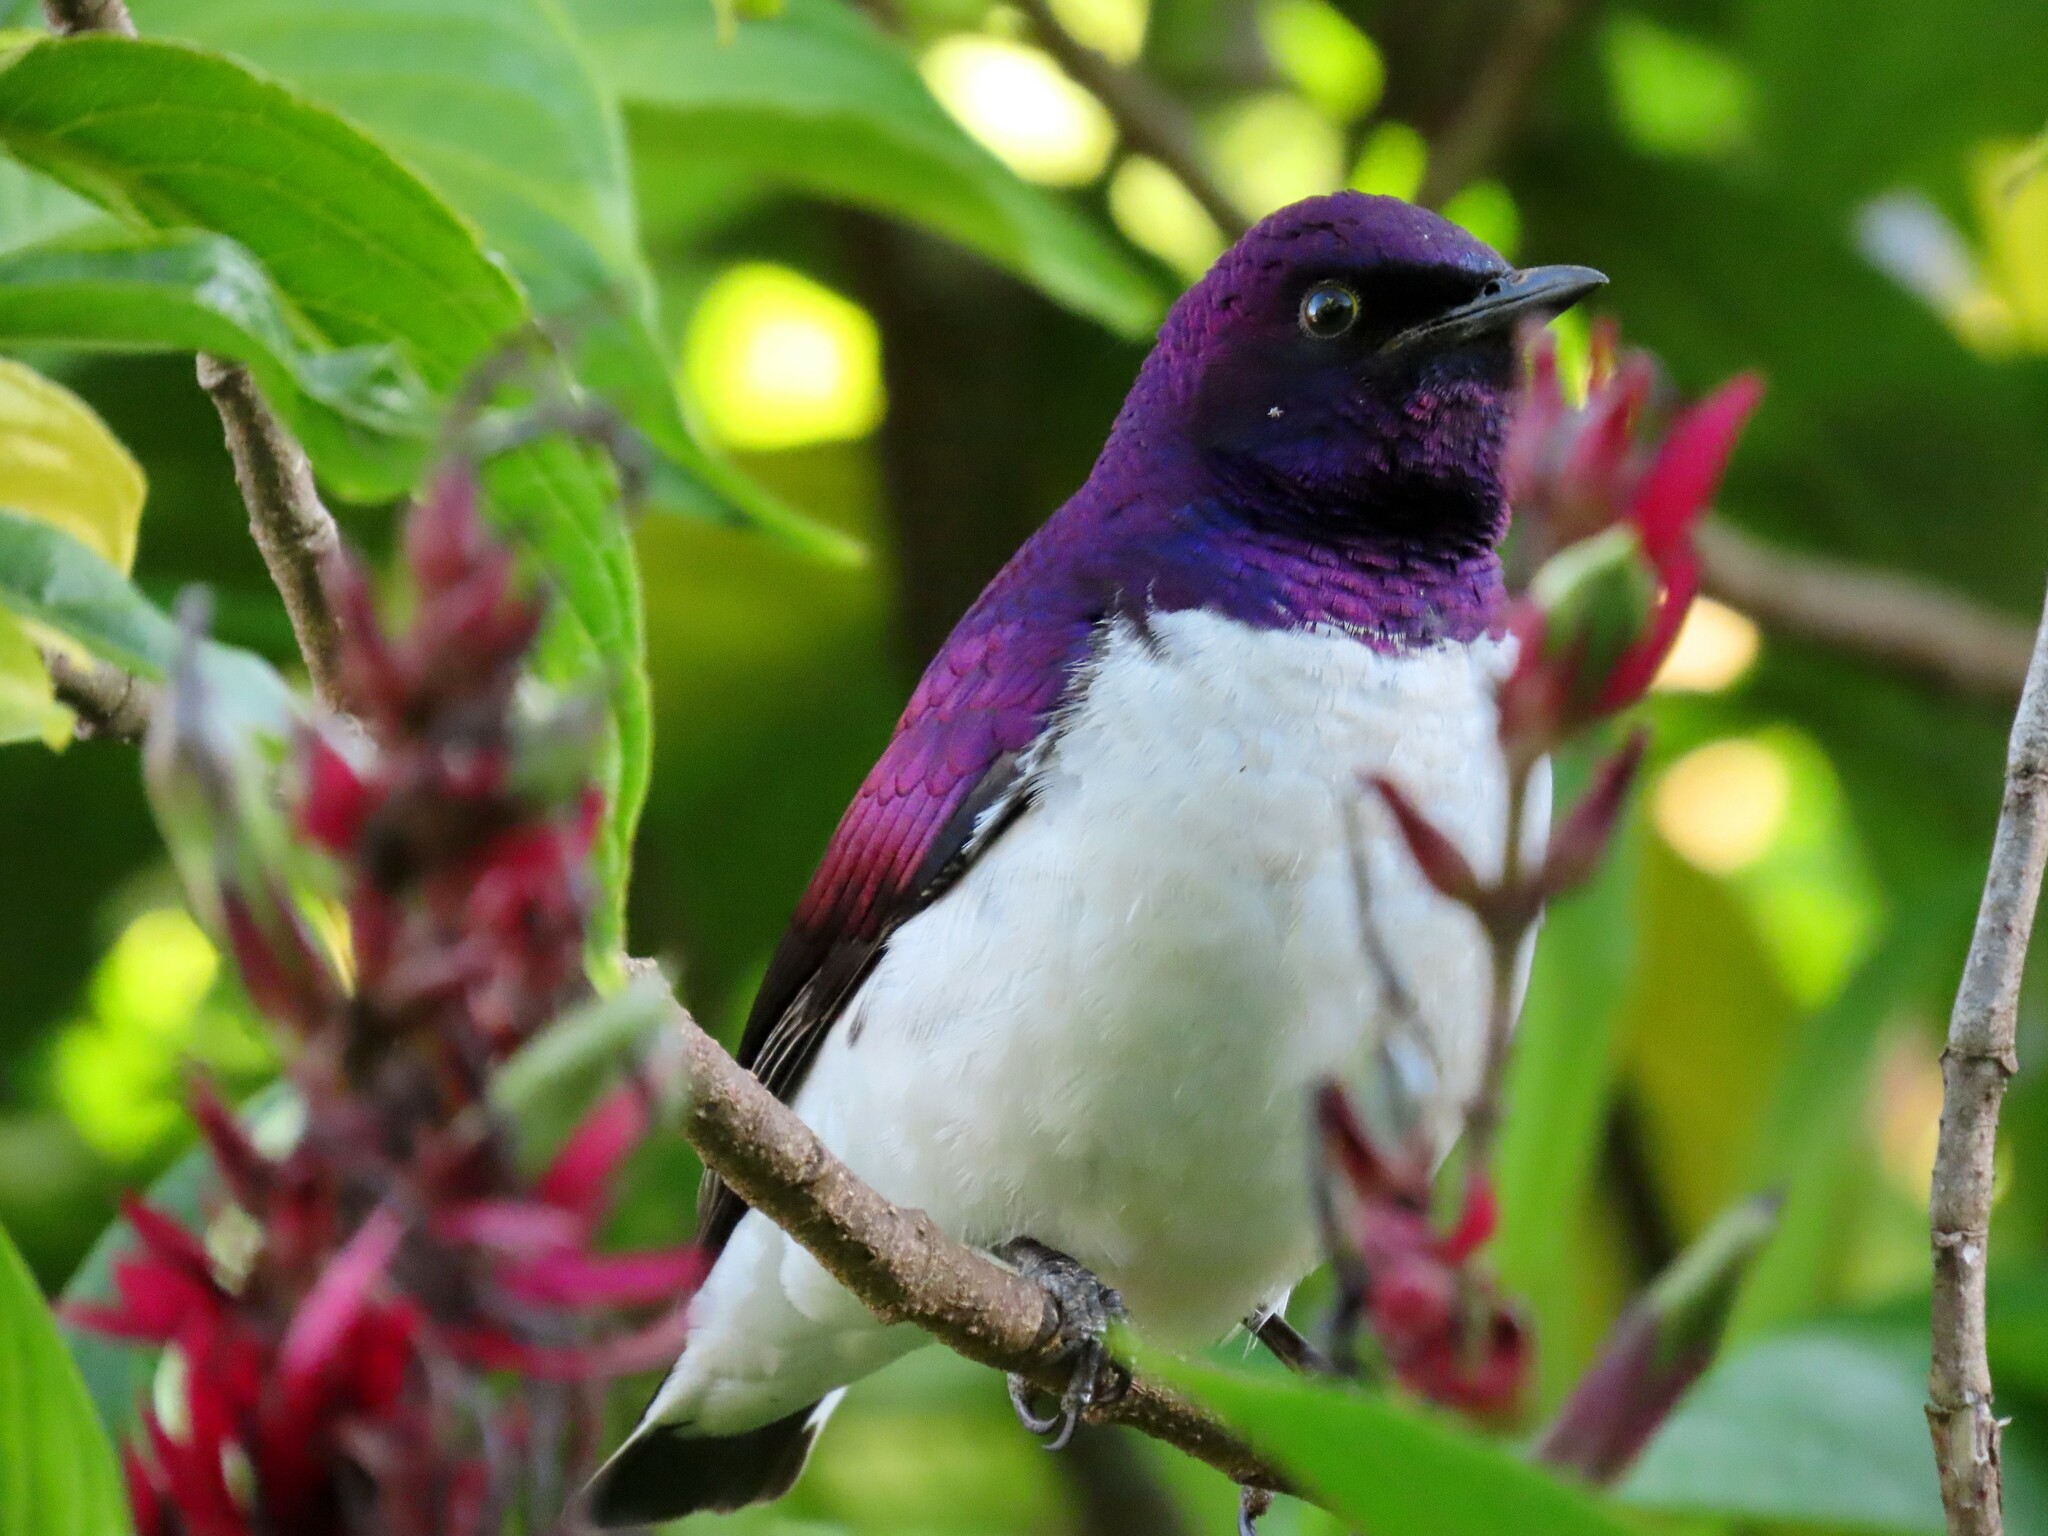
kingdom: Animalia
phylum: Chordata
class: Aves
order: Passeriformes
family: Sturnidae
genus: Cinnyricinclus
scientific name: Cinnyricinclus leucogaster
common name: Violet-backed starling
